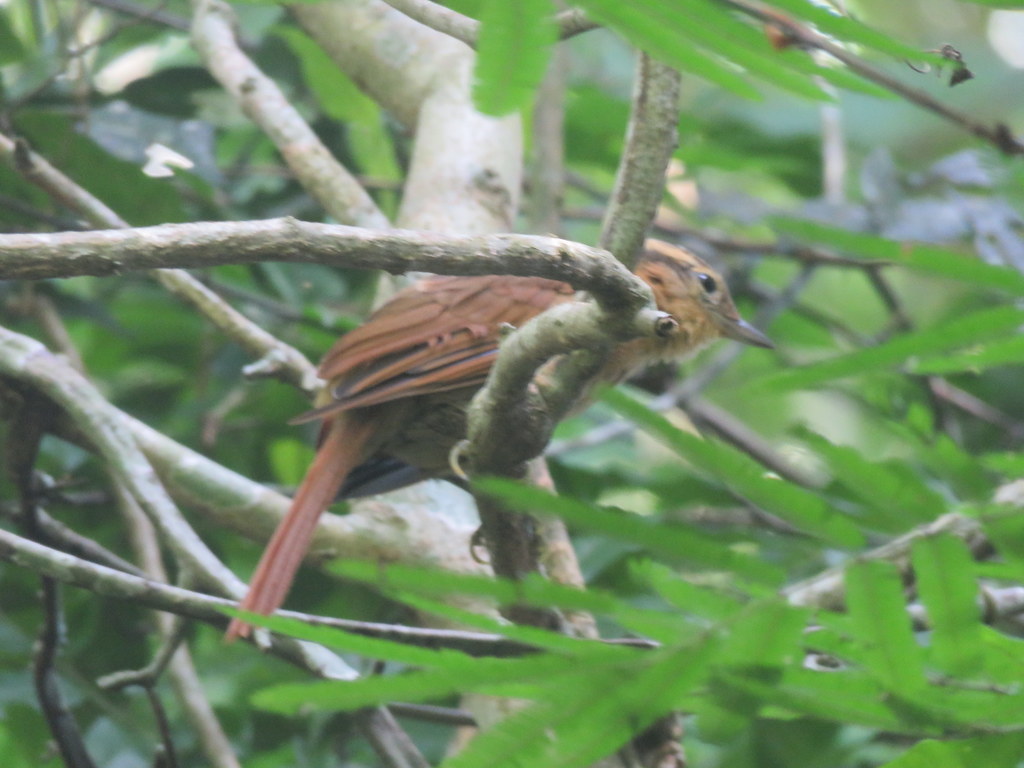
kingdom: Animalia
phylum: Chordata
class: Aves
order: Passeriformes
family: Furnariidae
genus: Philydor
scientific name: Philydor lichtensteini
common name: Ochre-breasted foliage-gleaner
